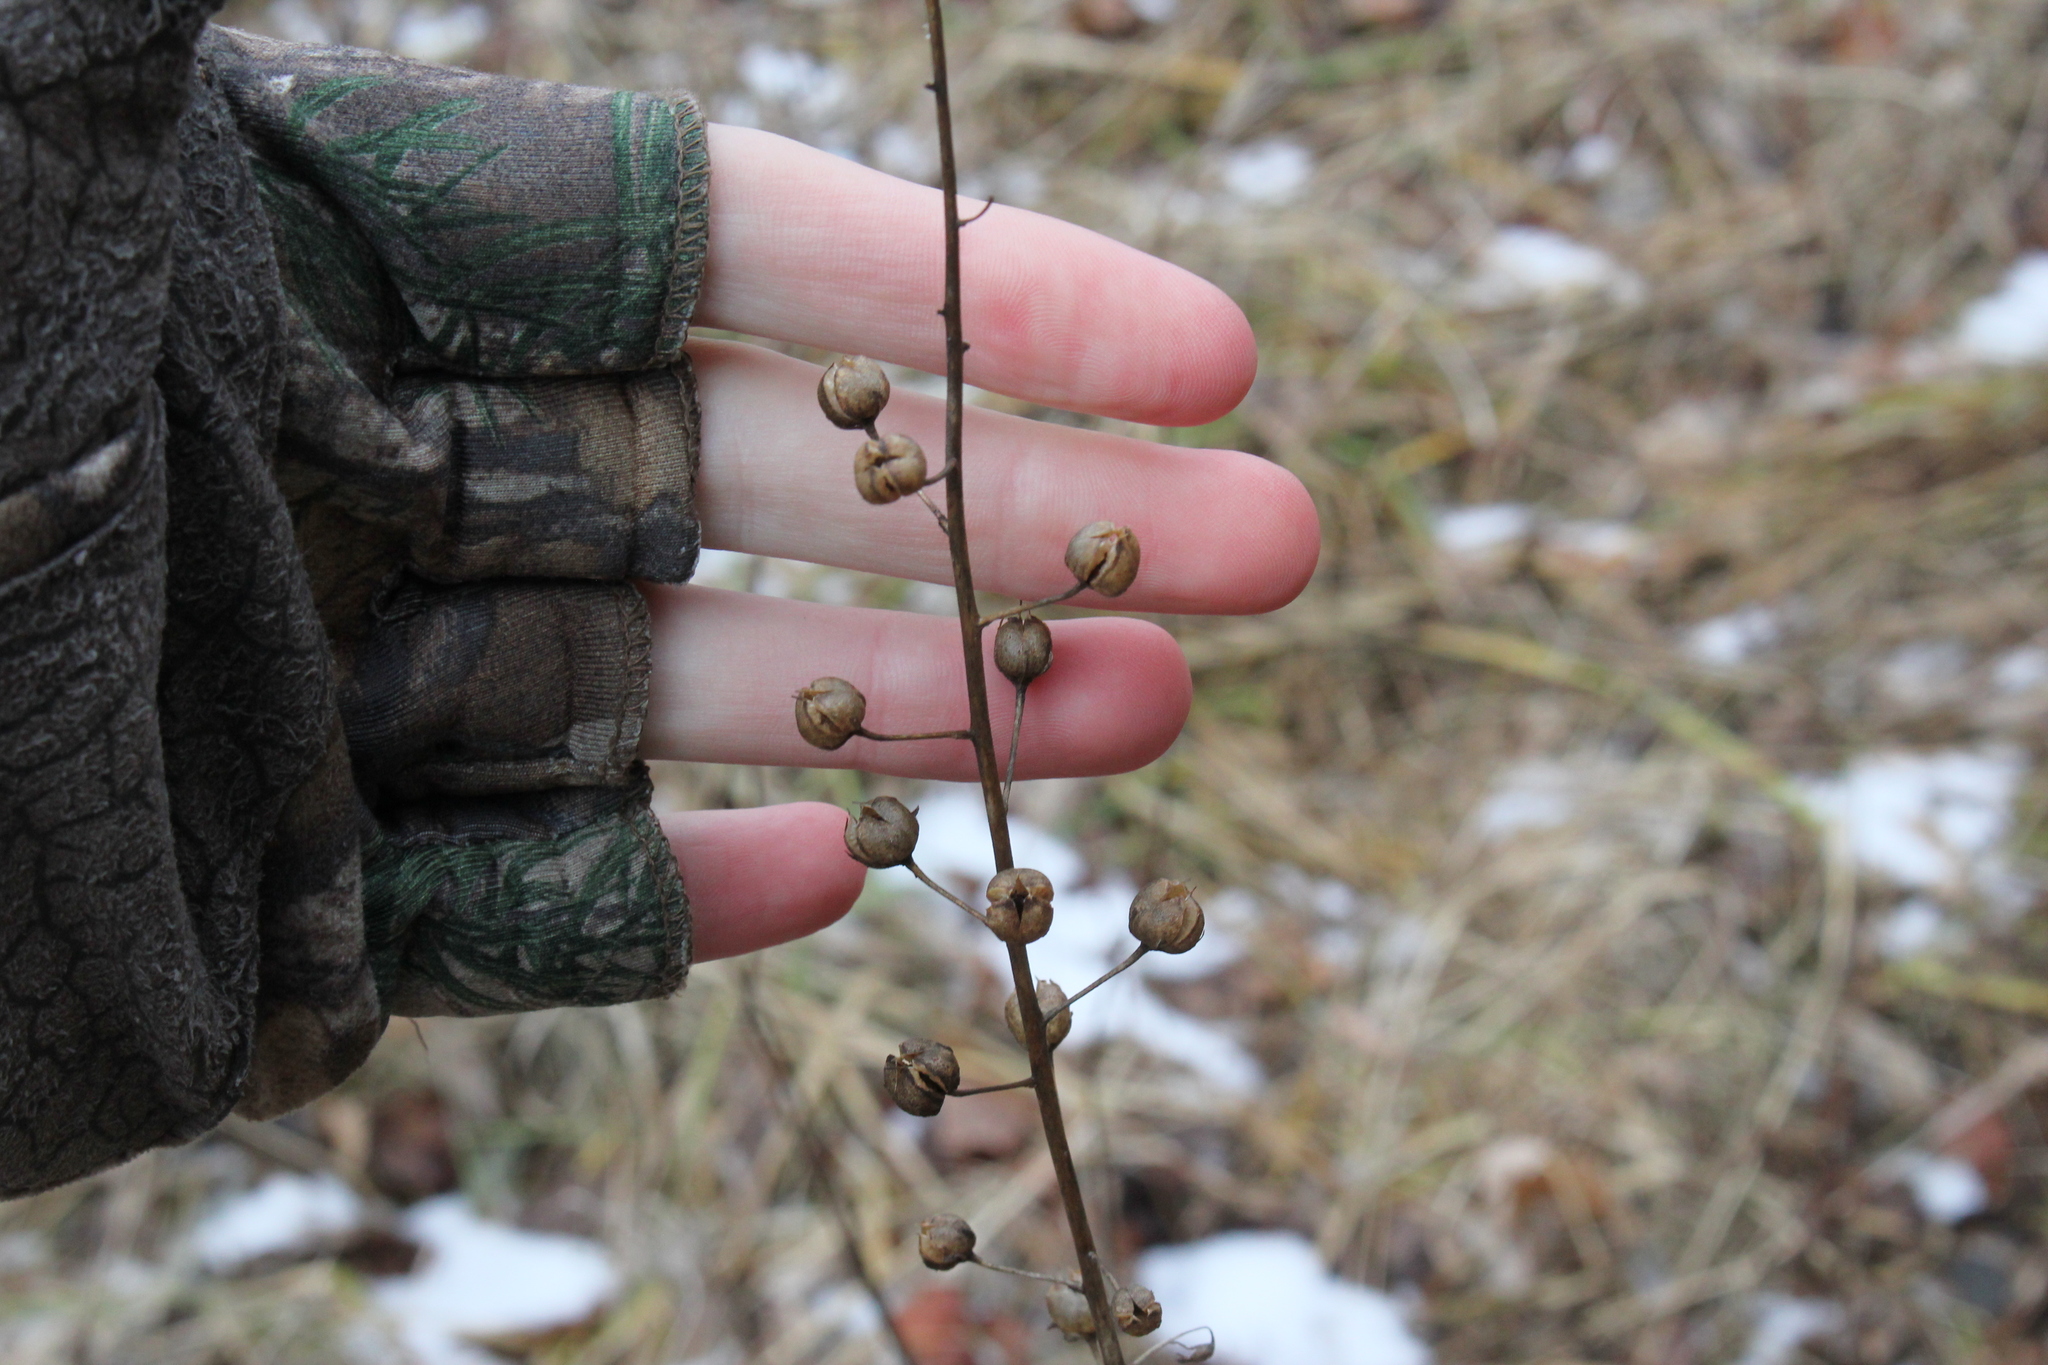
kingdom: Plantae
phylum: Tracheophyta
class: Magnoliopsida
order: Lamiales
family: Scrophulariaceae
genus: Verbascum
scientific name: Verbascum blattaria
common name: Moth mullein
